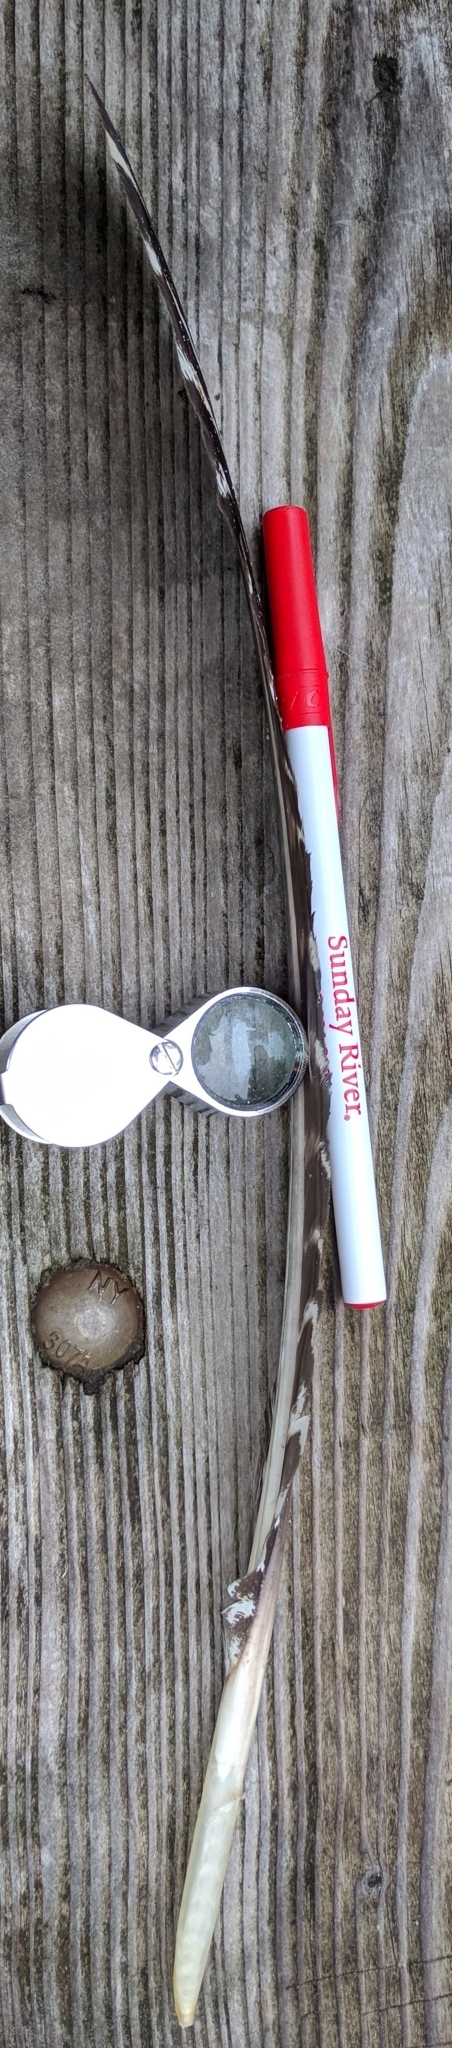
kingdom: Animalia
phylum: Chordata
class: Aves
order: Galliformes
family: Phasianidae
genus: Meleagris
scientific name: Meleagris gallopavo
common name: Wild turkey
